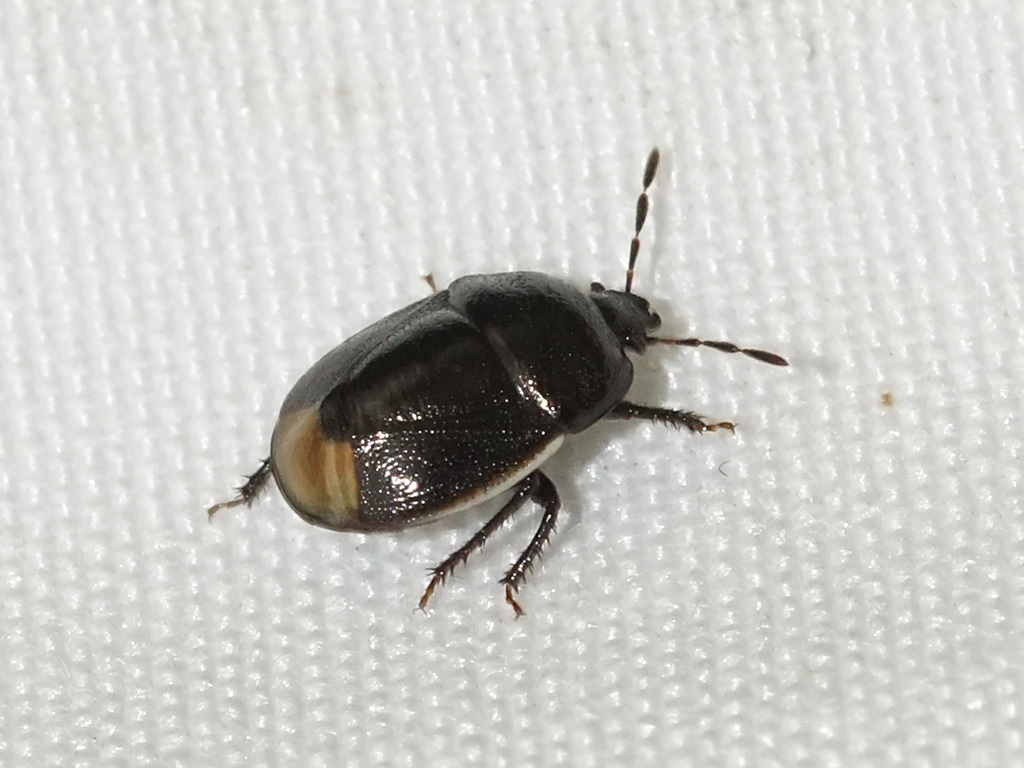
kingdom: Animalia
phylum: Arthropoda
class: Insecta
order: Hemiptera
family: Cydnidae
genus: Legnotus
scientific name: Legnotus limbosus
